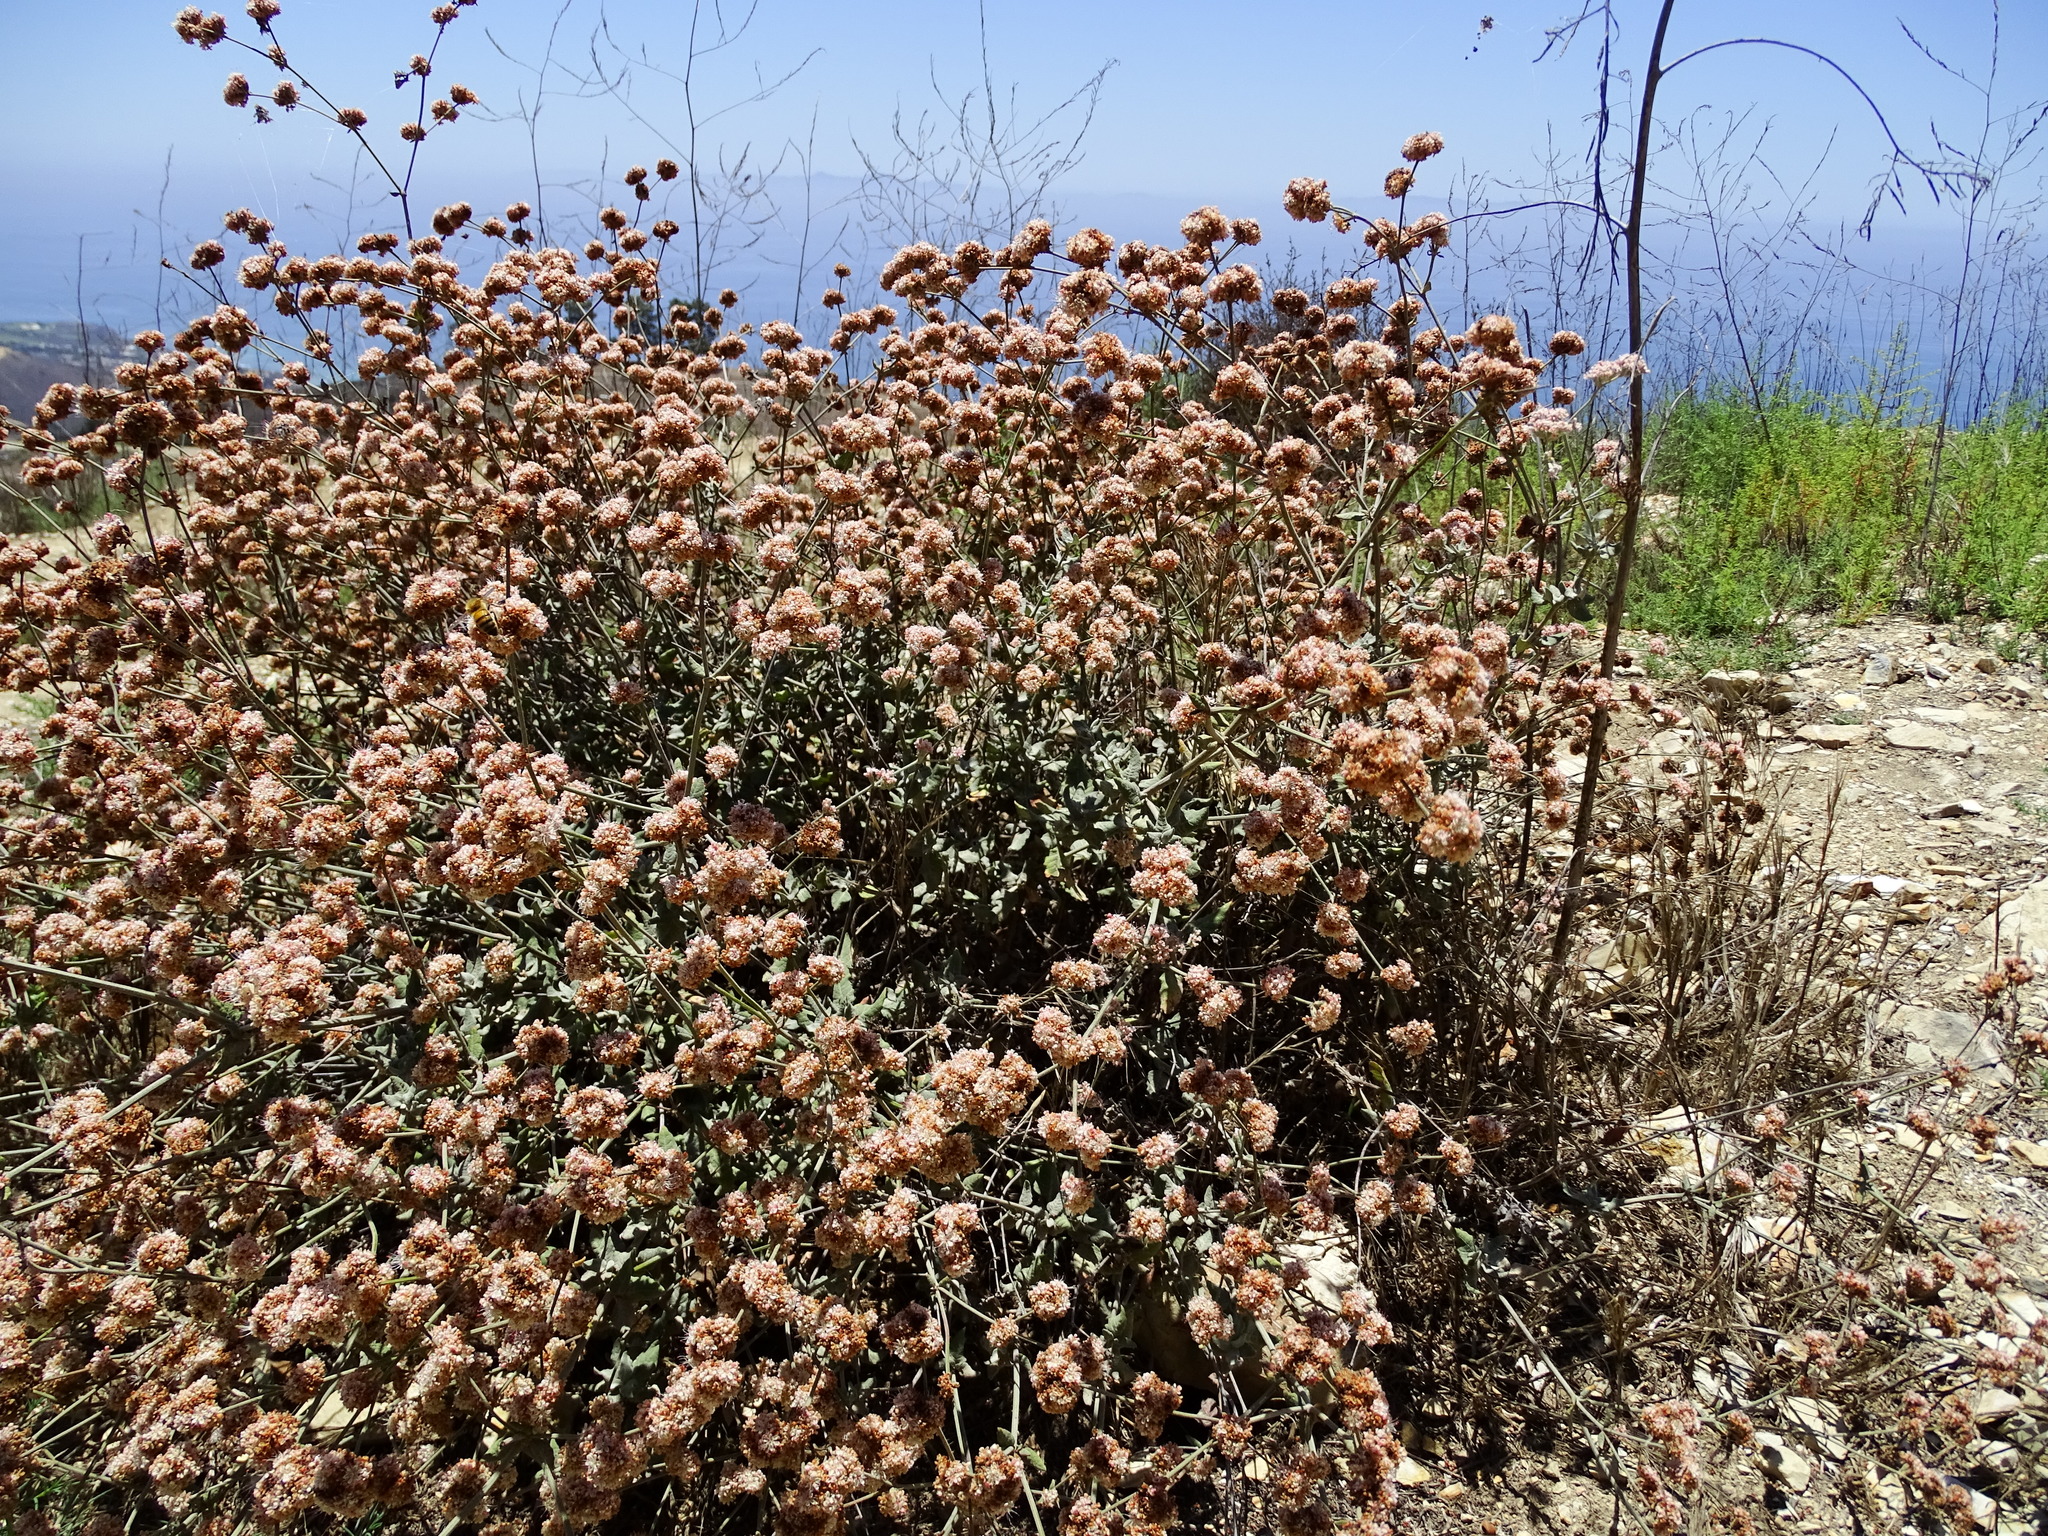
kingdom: Plantae
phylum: Tracheophyta
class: Magnoliopsida
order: Caryophyllales
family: Polygonaceae
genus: Eriogonum
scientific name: Eriogonum cinereum
